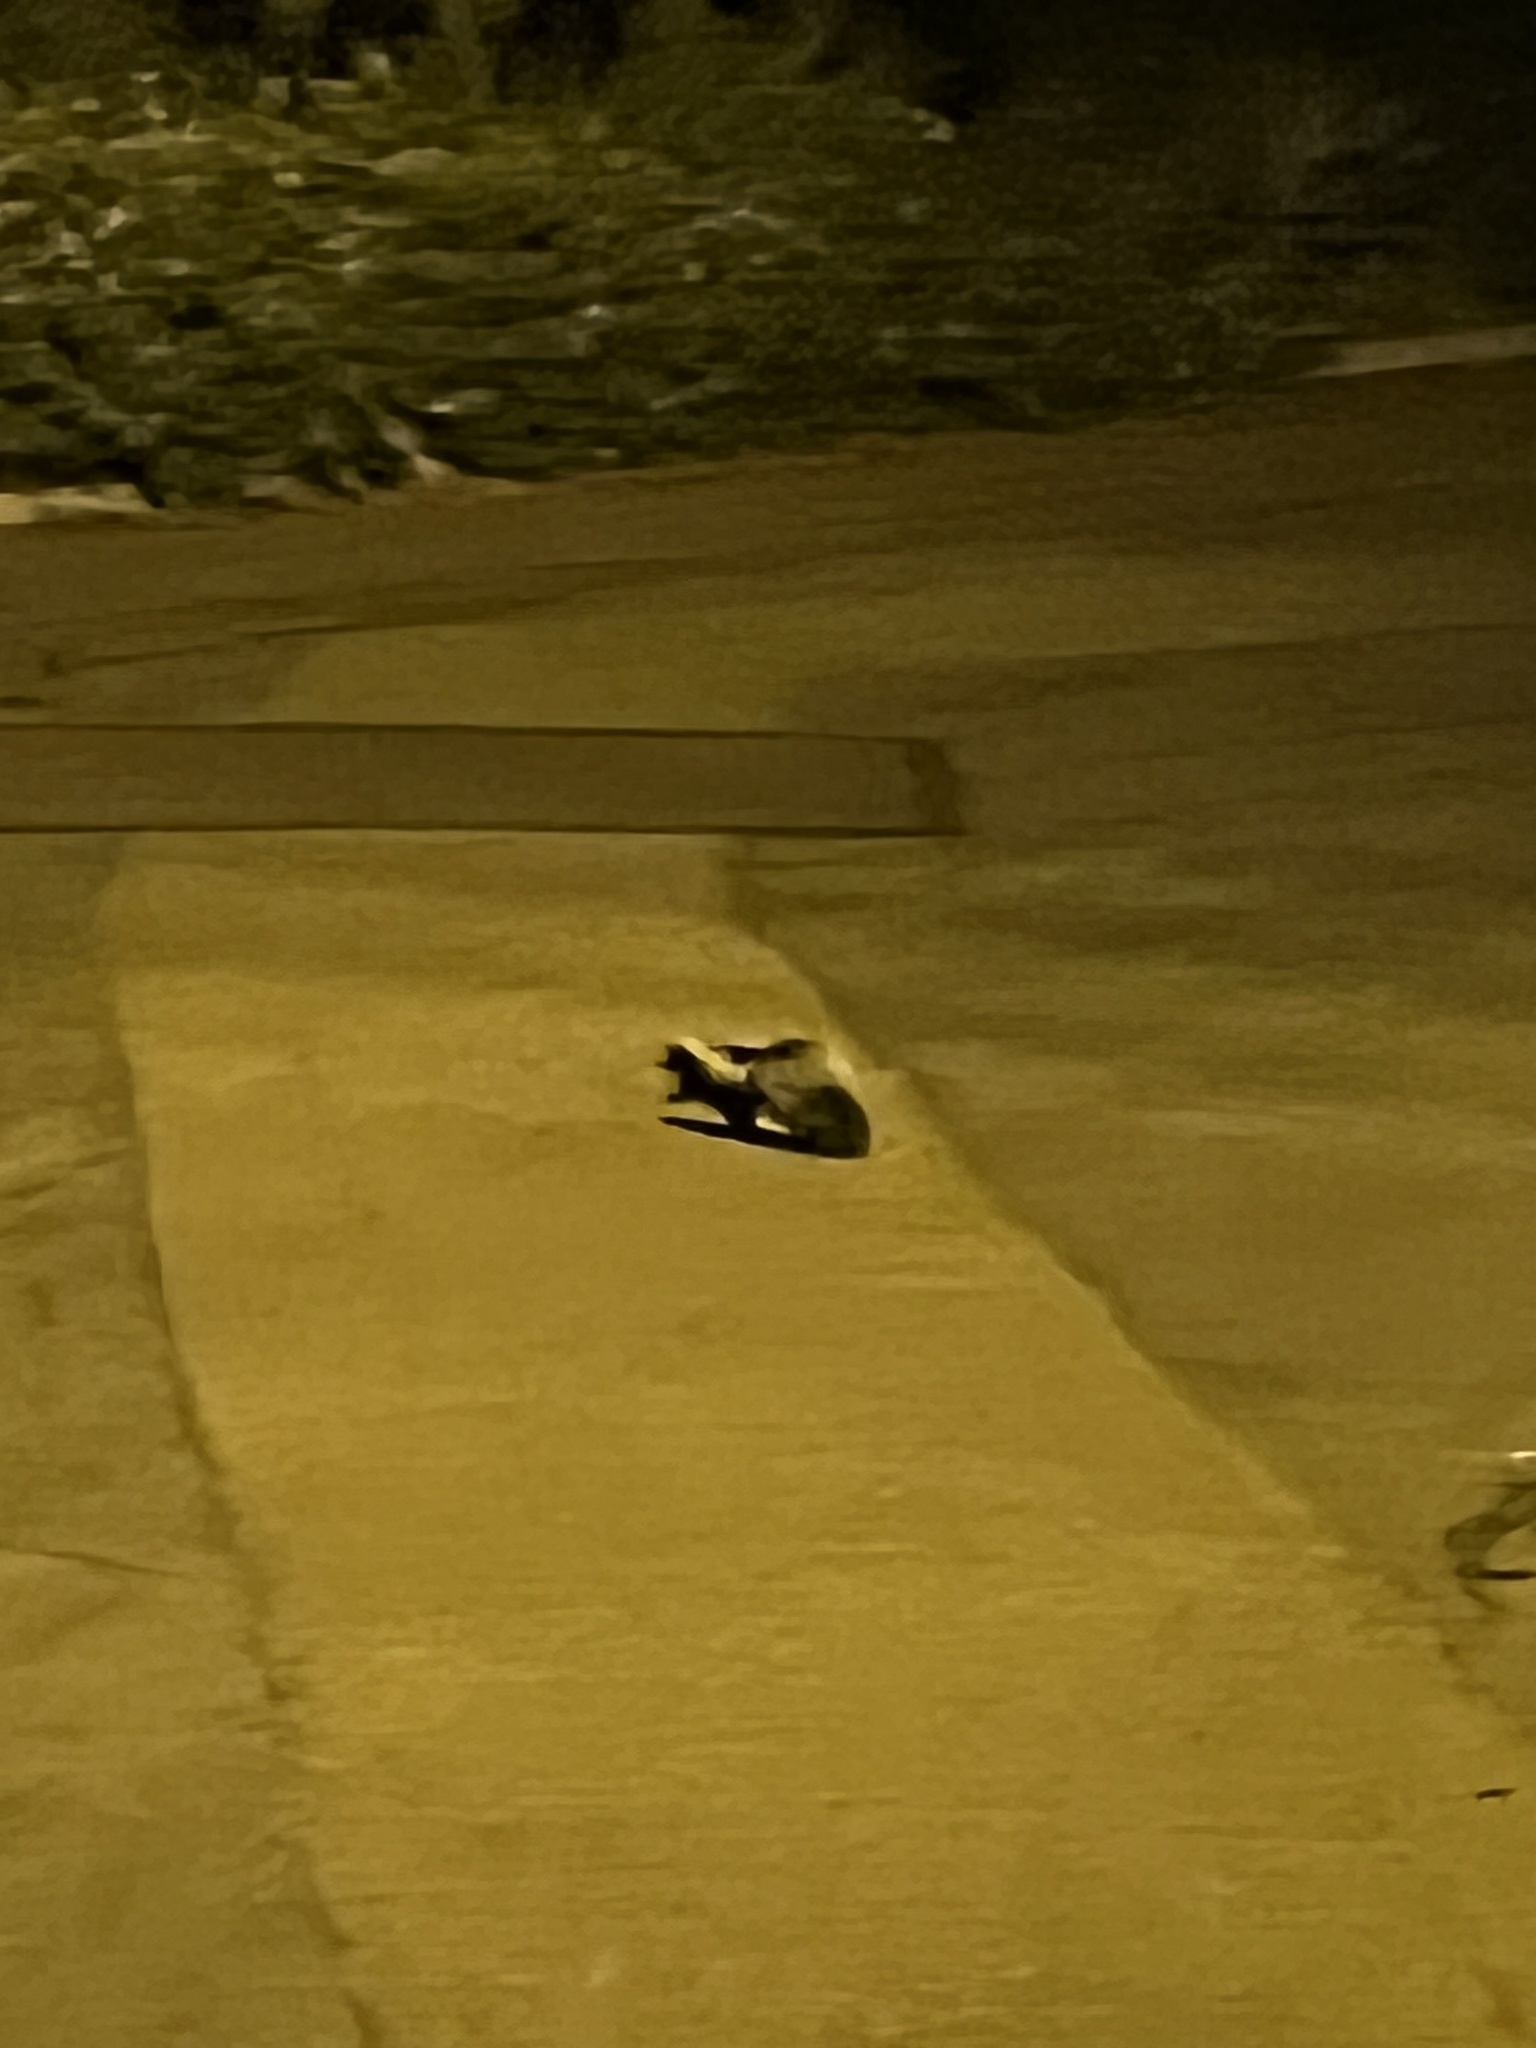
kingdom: Animalia
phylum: Chordata
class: Mammalia
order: Carnivora
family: Mephitidae
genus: Mephitis
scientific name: Mephitis mephitis
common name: Striped skunk
